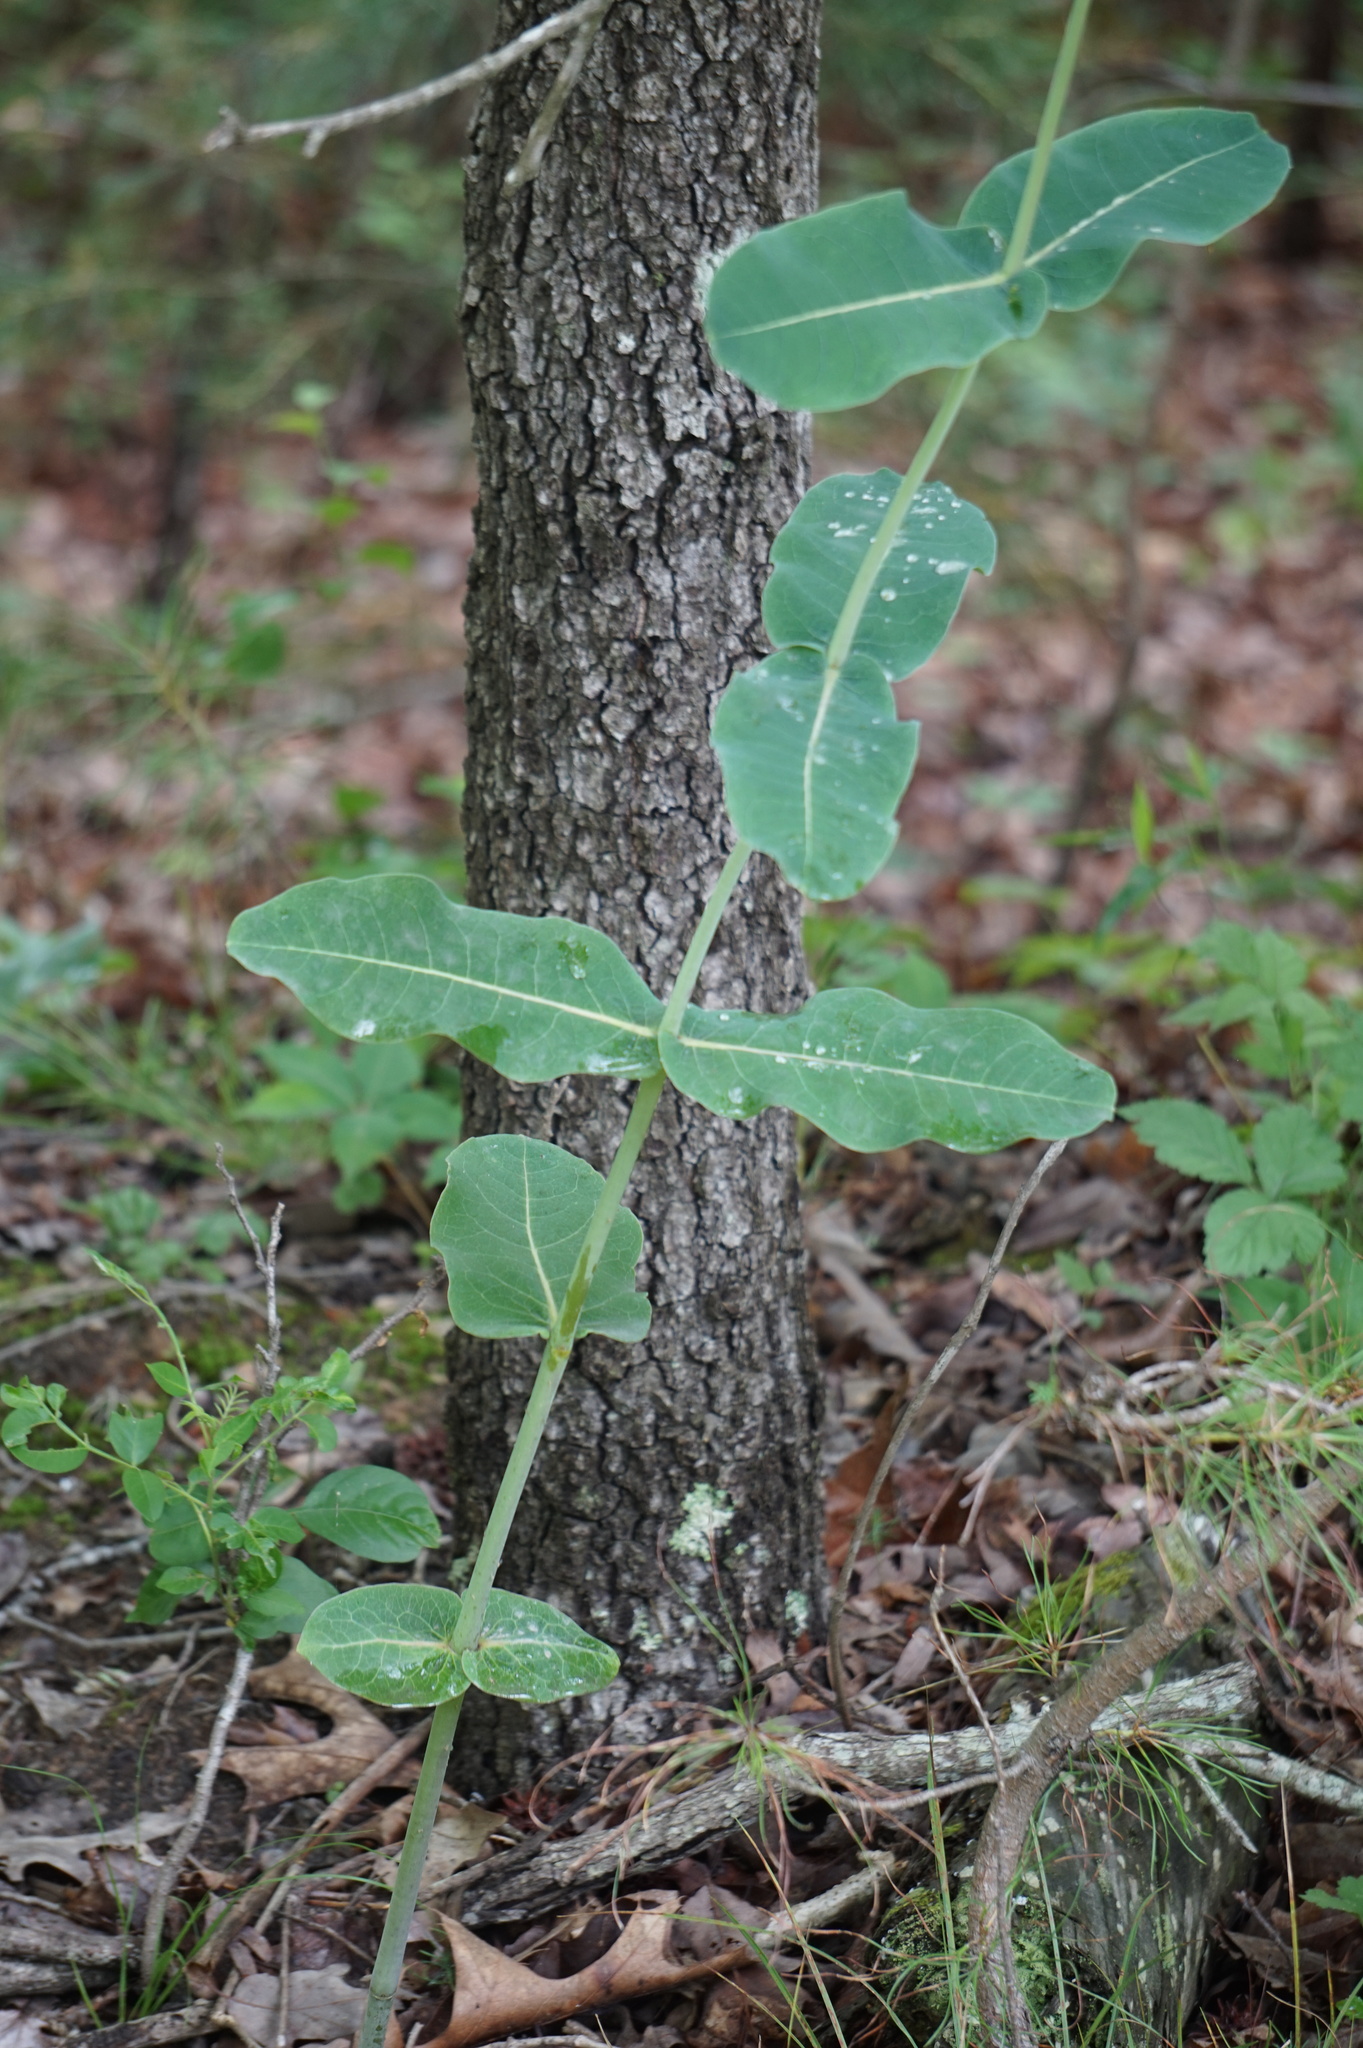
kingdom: Plantae
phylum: Tracheophyta
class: Magnoliopsida
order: Gentianales
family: Apocynaceae
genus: Asclepias
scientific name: Asclepias amplexicaulis
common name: Blunt-leaf milkweed
